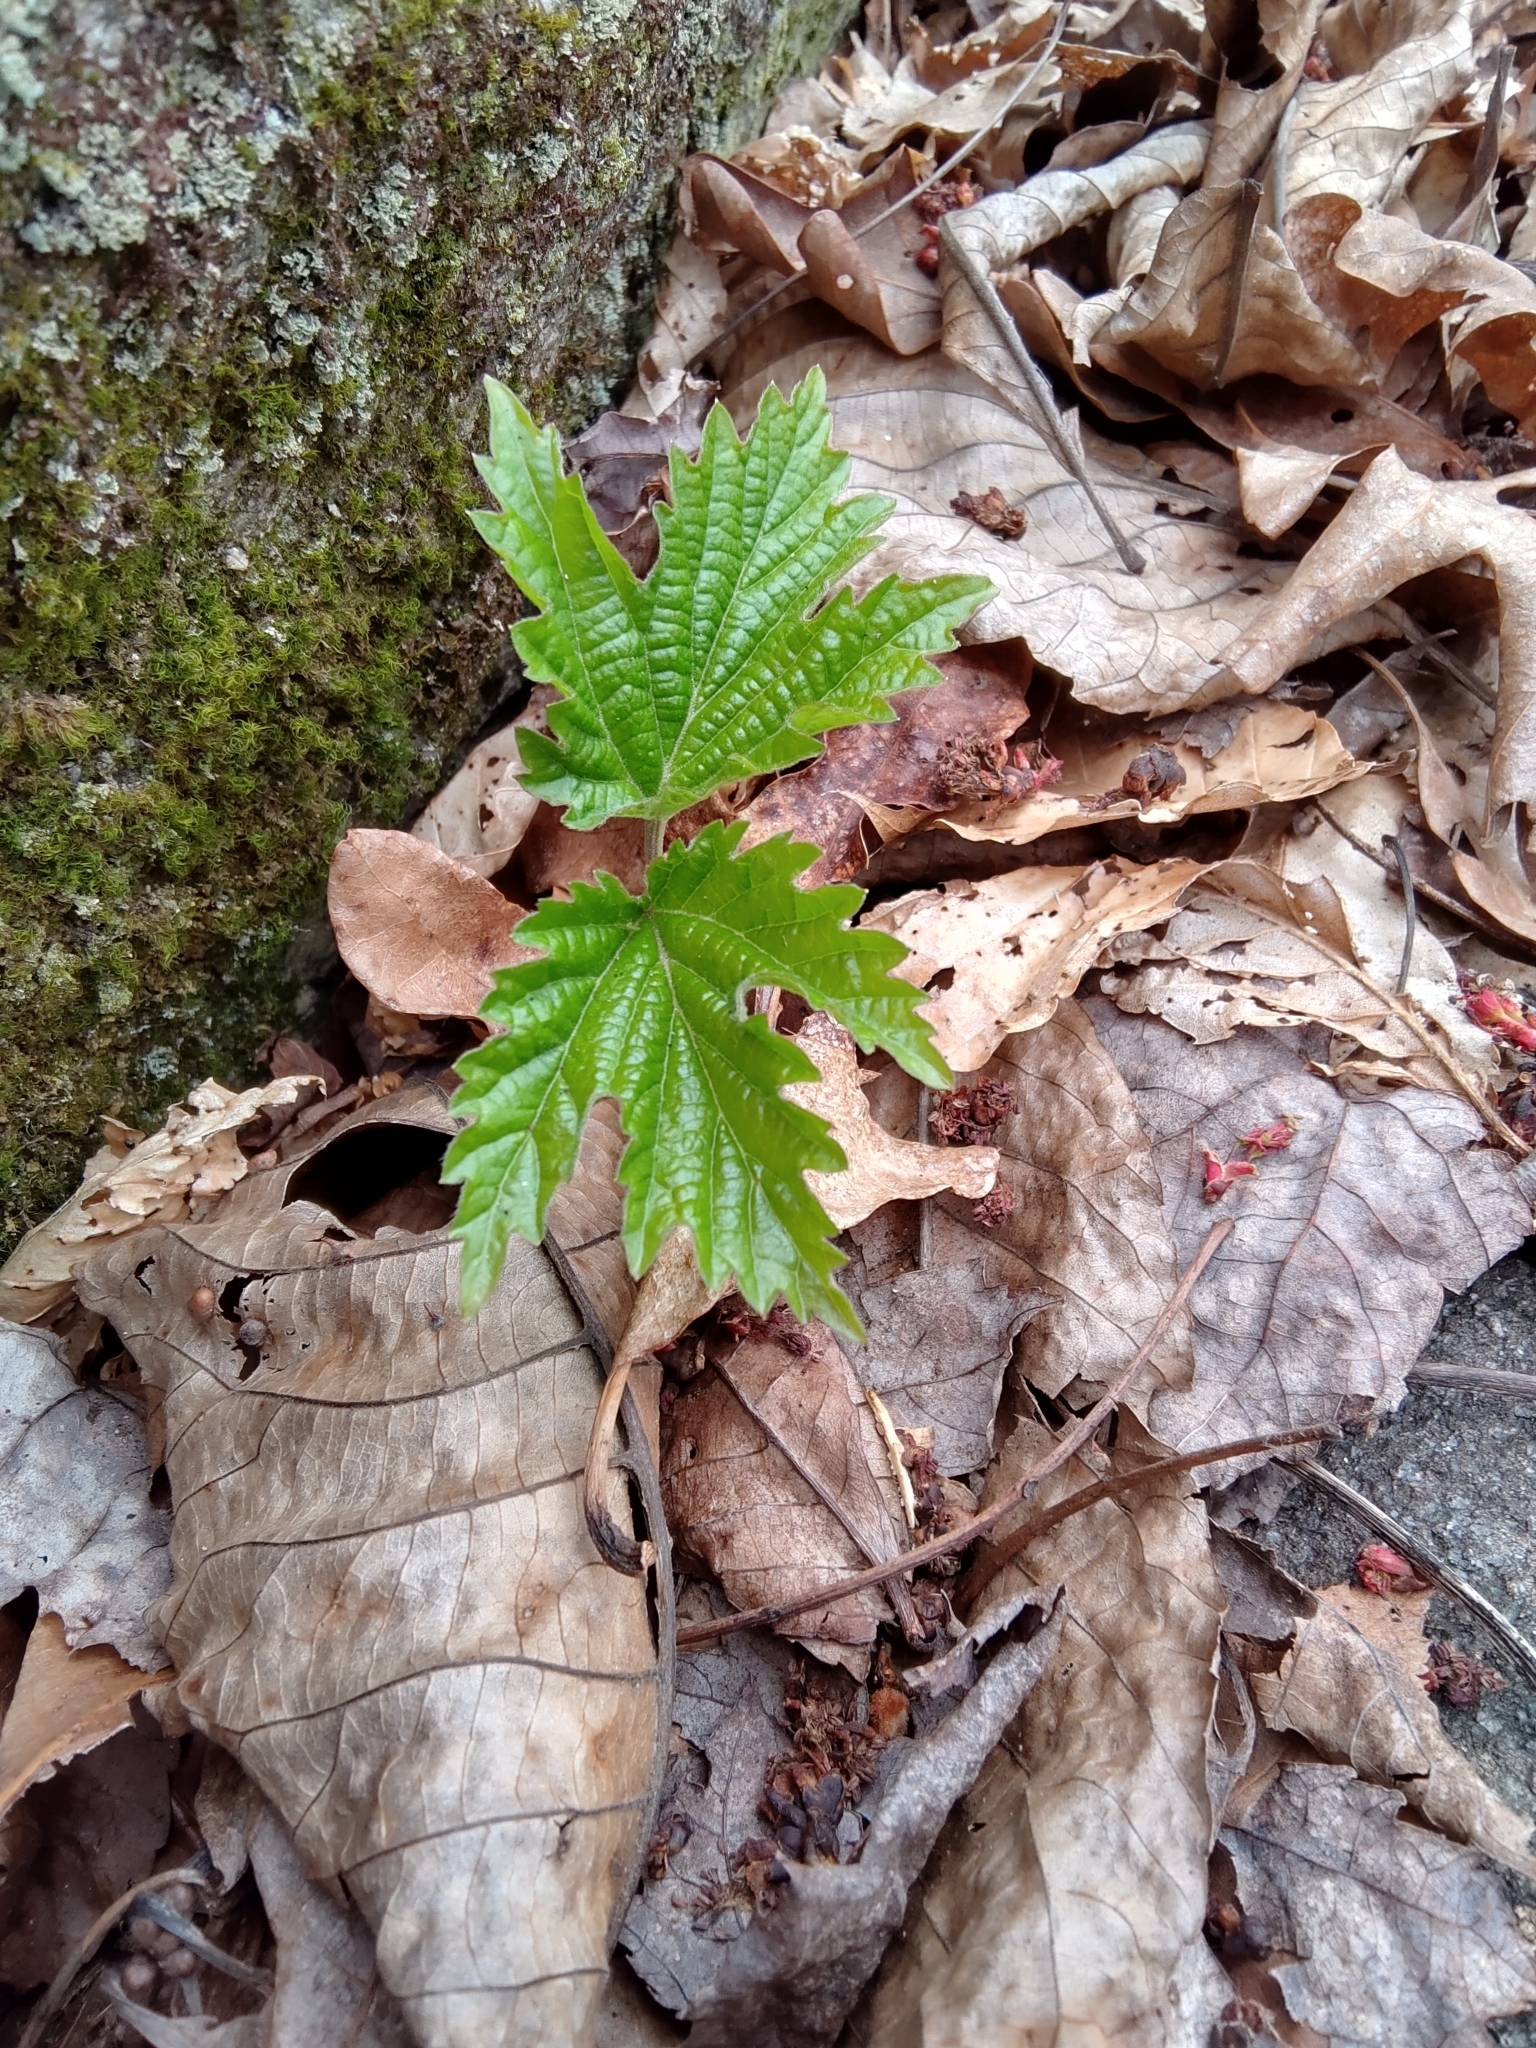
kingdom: Plantae
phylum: Tracheophyta
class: Magnoliopsida
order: Dipsacales
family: Viburnaceae
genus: Viburnum
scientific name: Viburnum acerifolium
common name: Dockmackie
